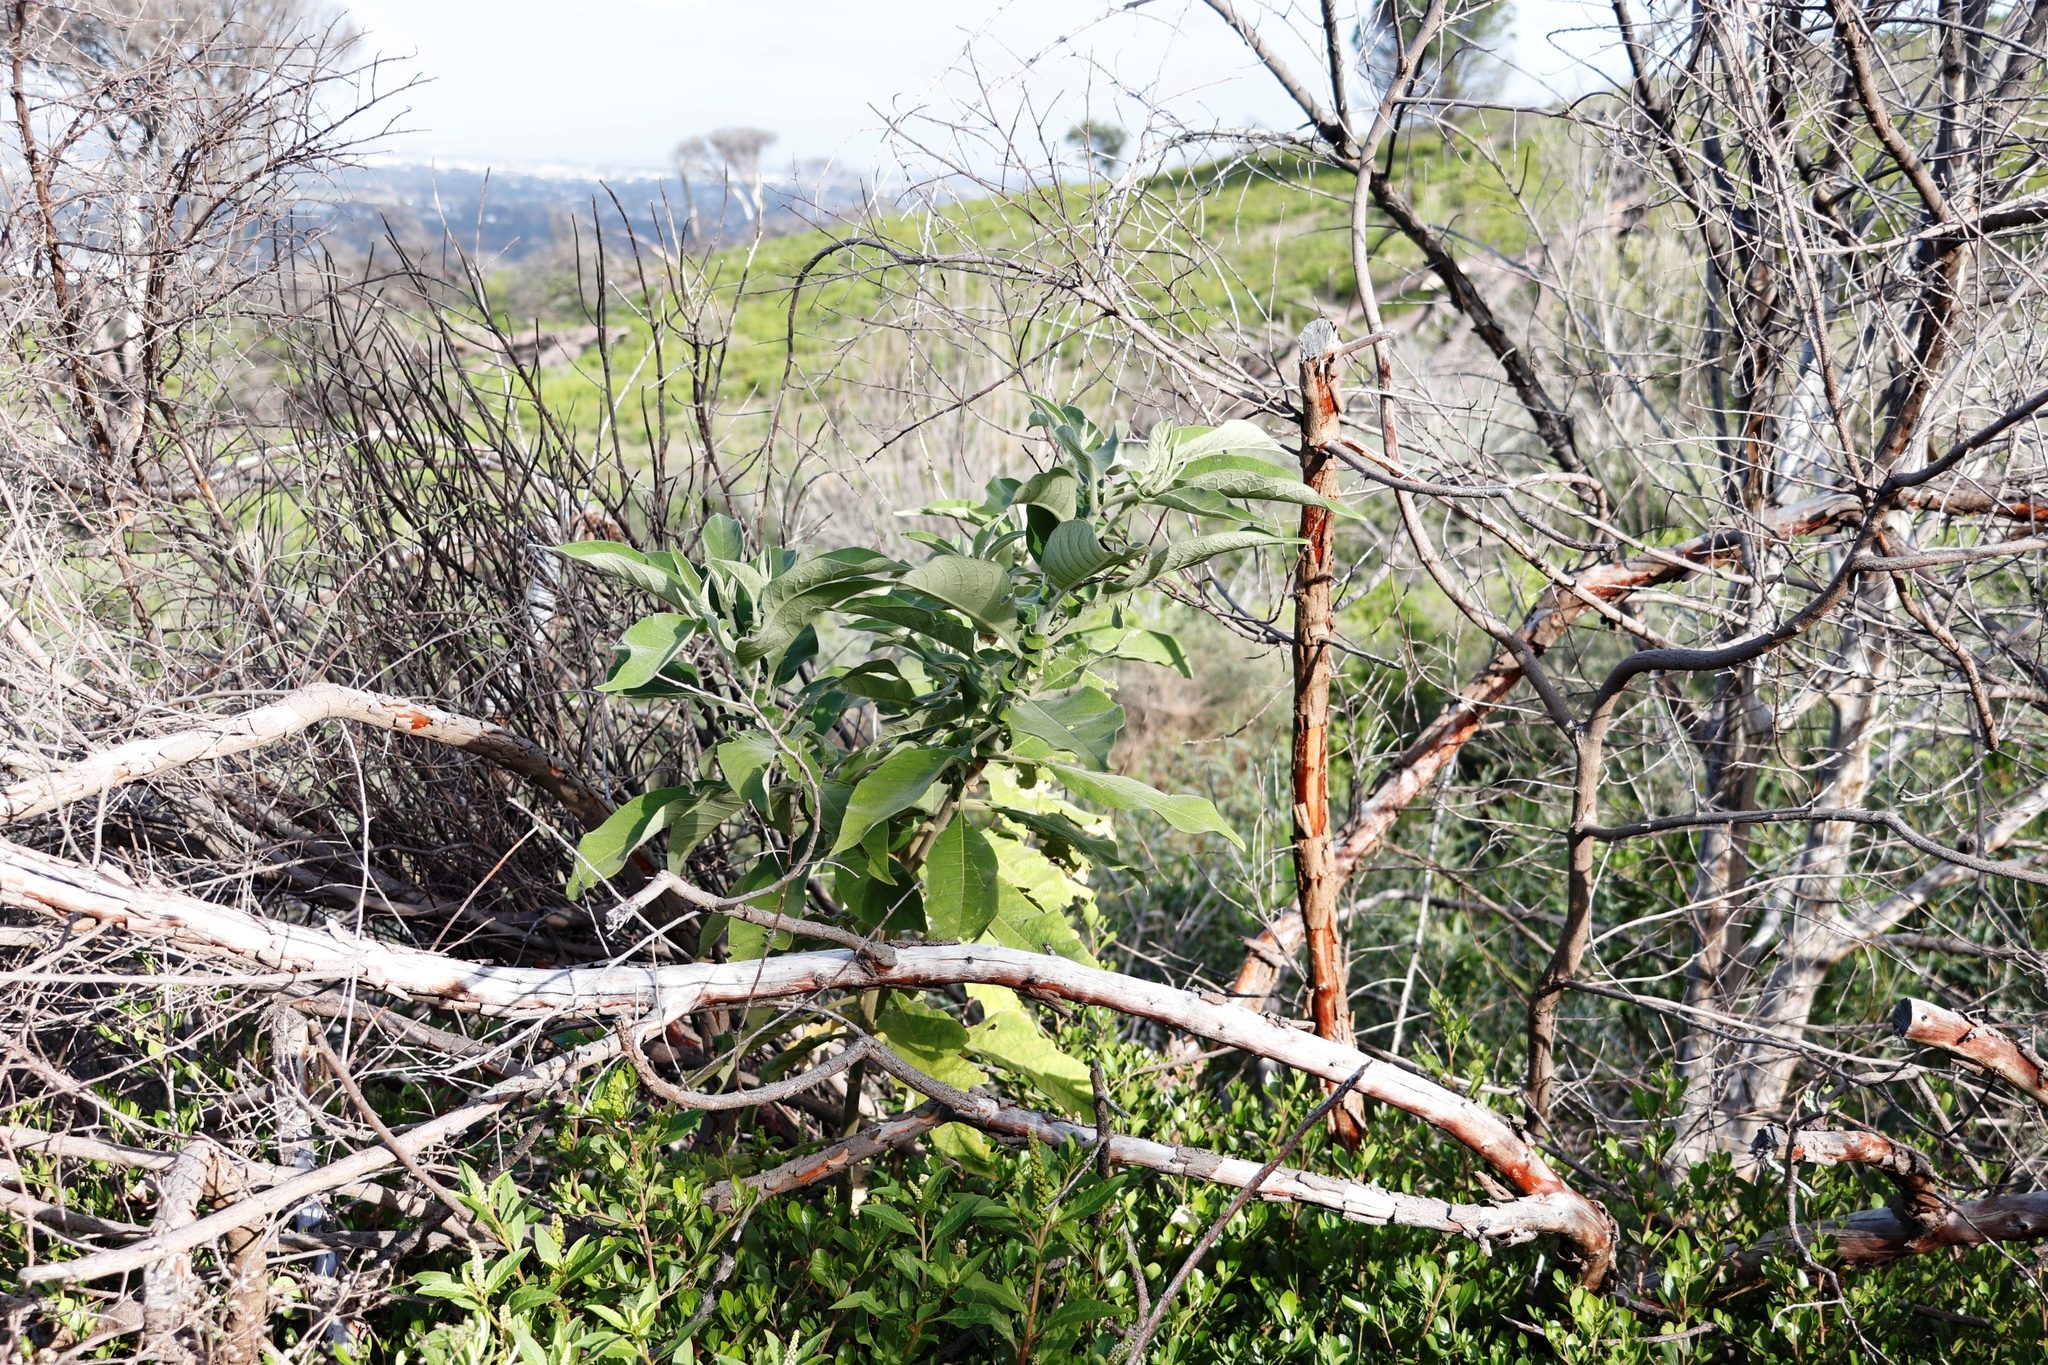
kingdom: Plantae
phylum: Tracheophyta
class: Magnoliopsida
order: Solanales
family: Solanaceae
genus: Solanum
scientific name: Solanum mauritianum
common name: Earleaf nightshade
